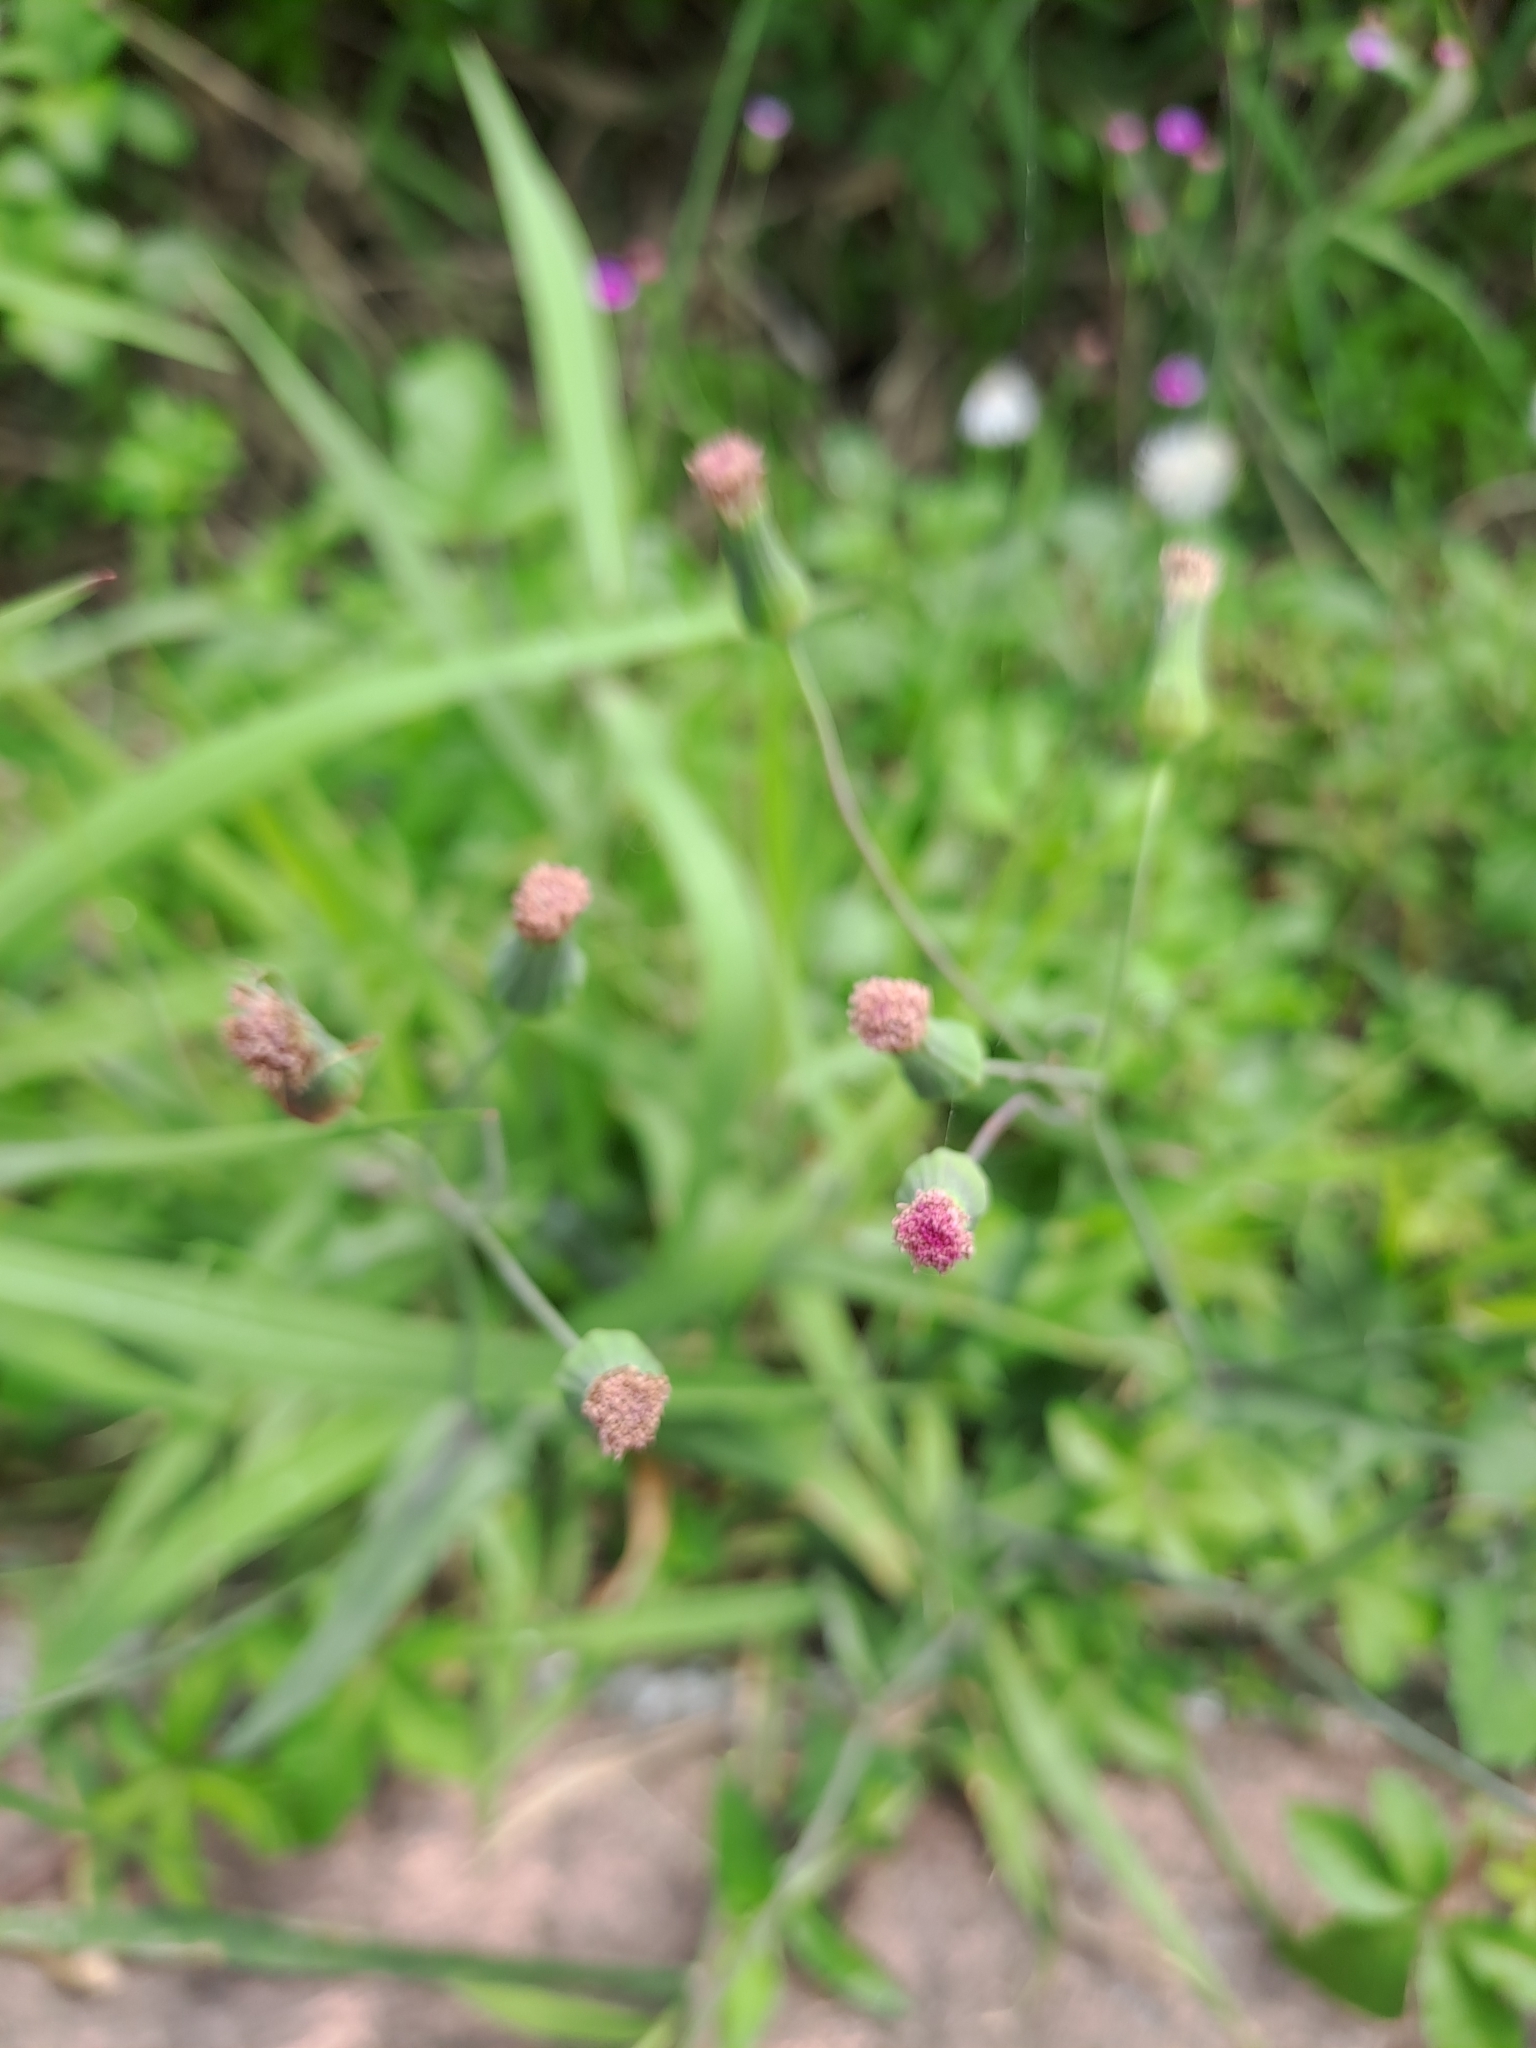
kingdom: Plantae
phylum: Tracheophyta
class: Magnoliopsida
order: Asterales
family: Asteraceae
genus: Emilia
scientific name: Emilia javanica
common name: Tassel-flower
